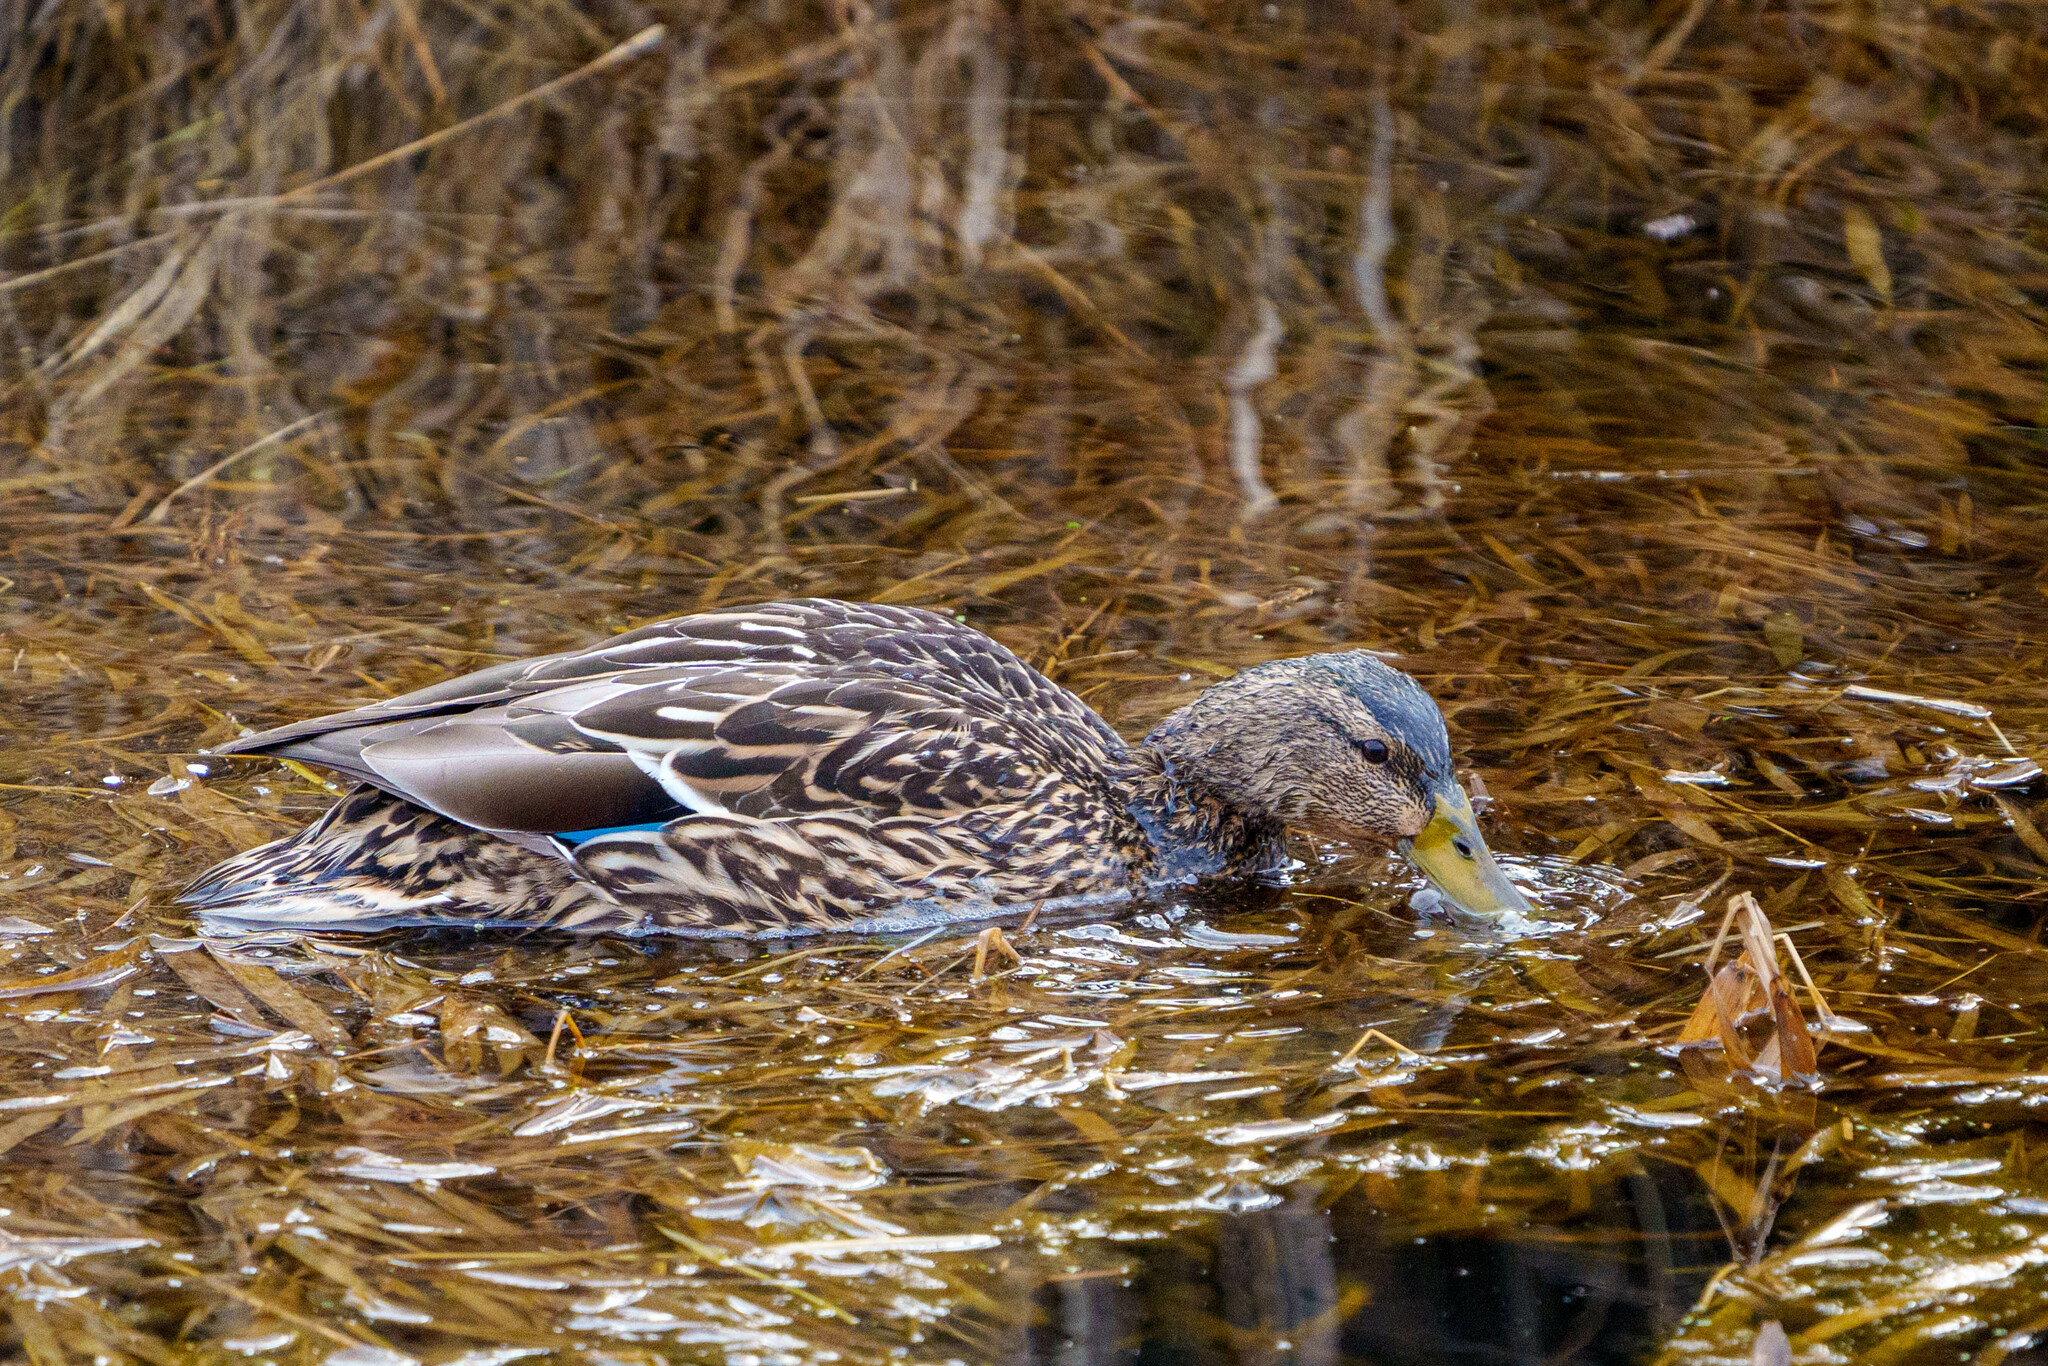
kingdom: Animalia
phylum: Chordata
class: Aves
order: Anseriformes
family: Anatidae
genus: Anas
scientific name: Anas platyrhynchos
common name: Mallard
